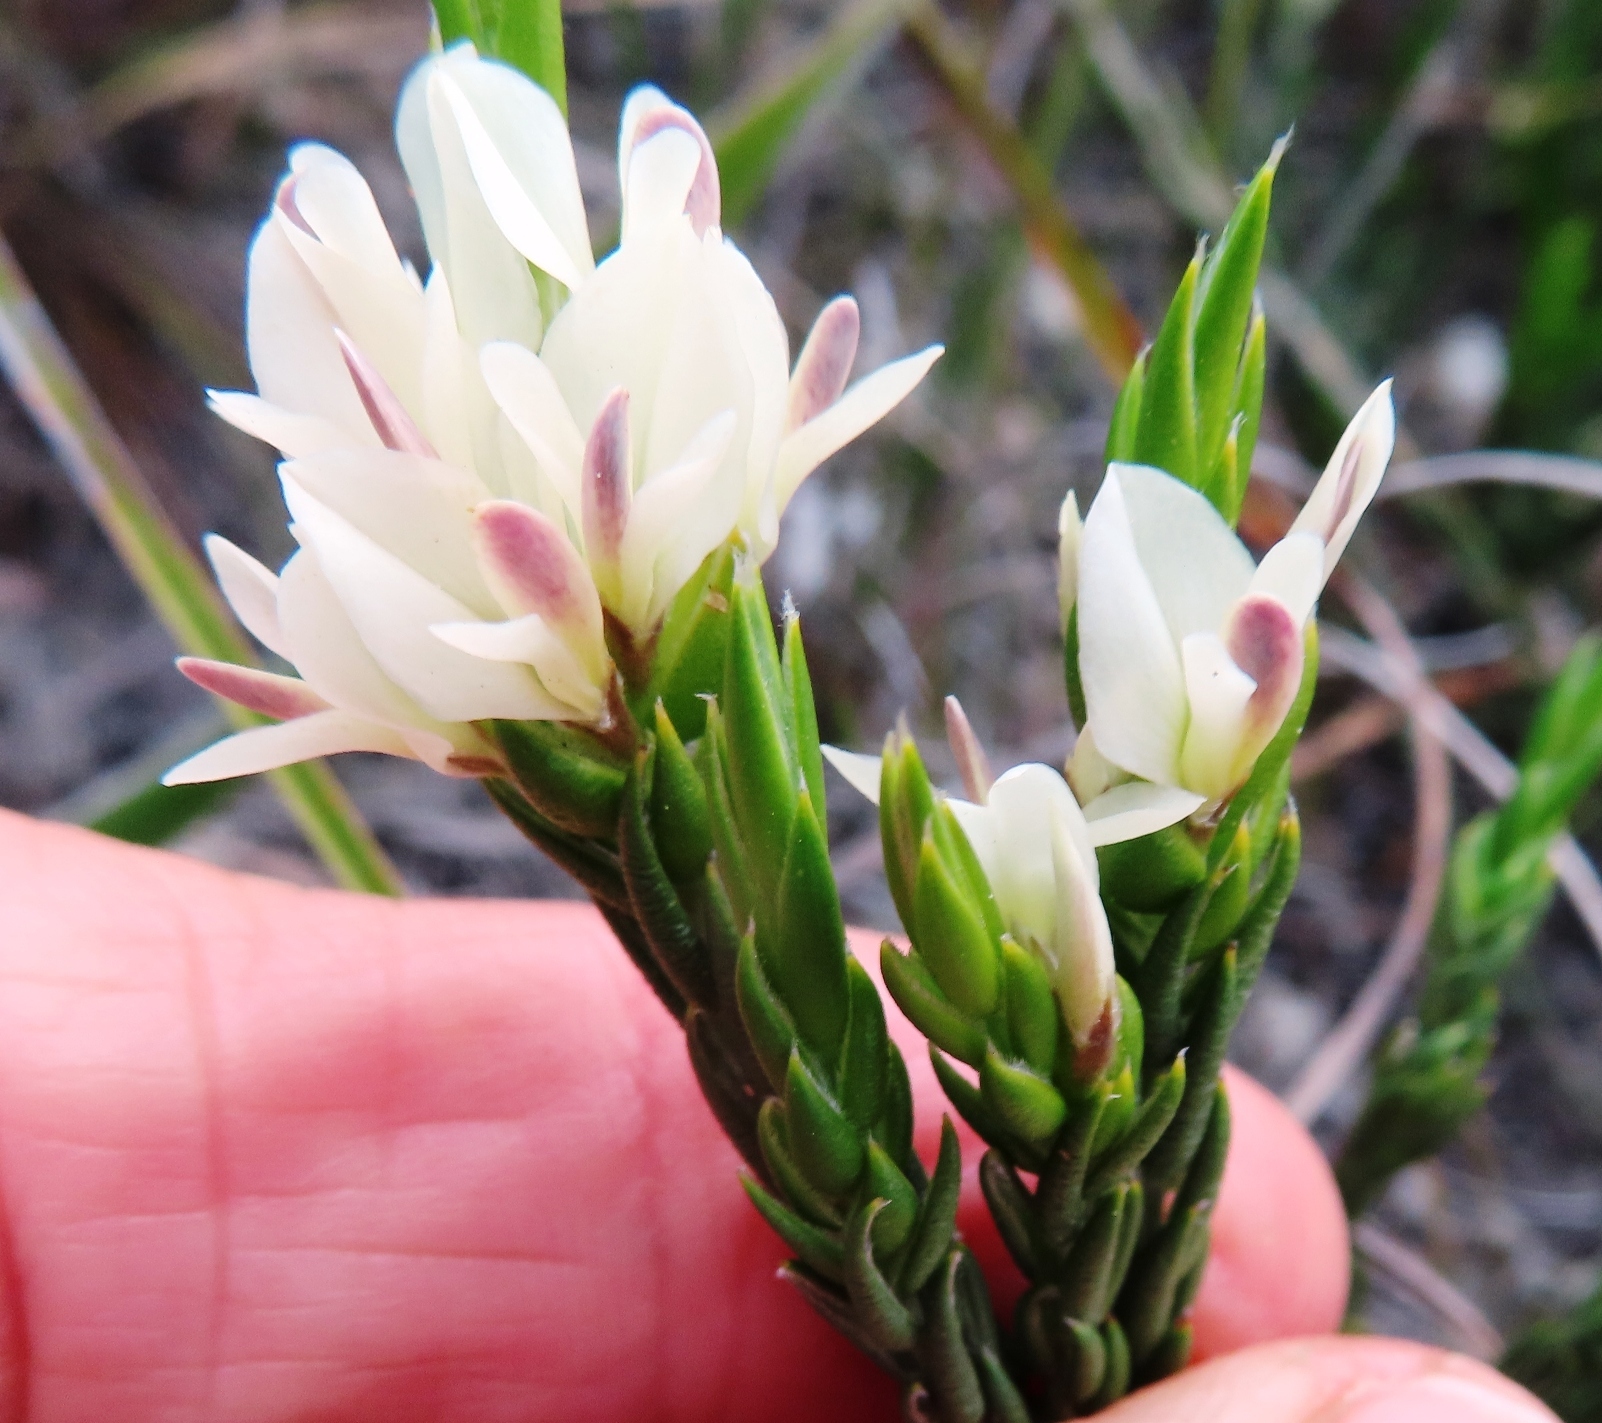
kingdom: Plantae
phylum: Tracheophyta
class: Magnoliopsida
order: Fabales
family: Fabaceae
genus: Amphithalea
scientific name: Amphithalea ciliaris
